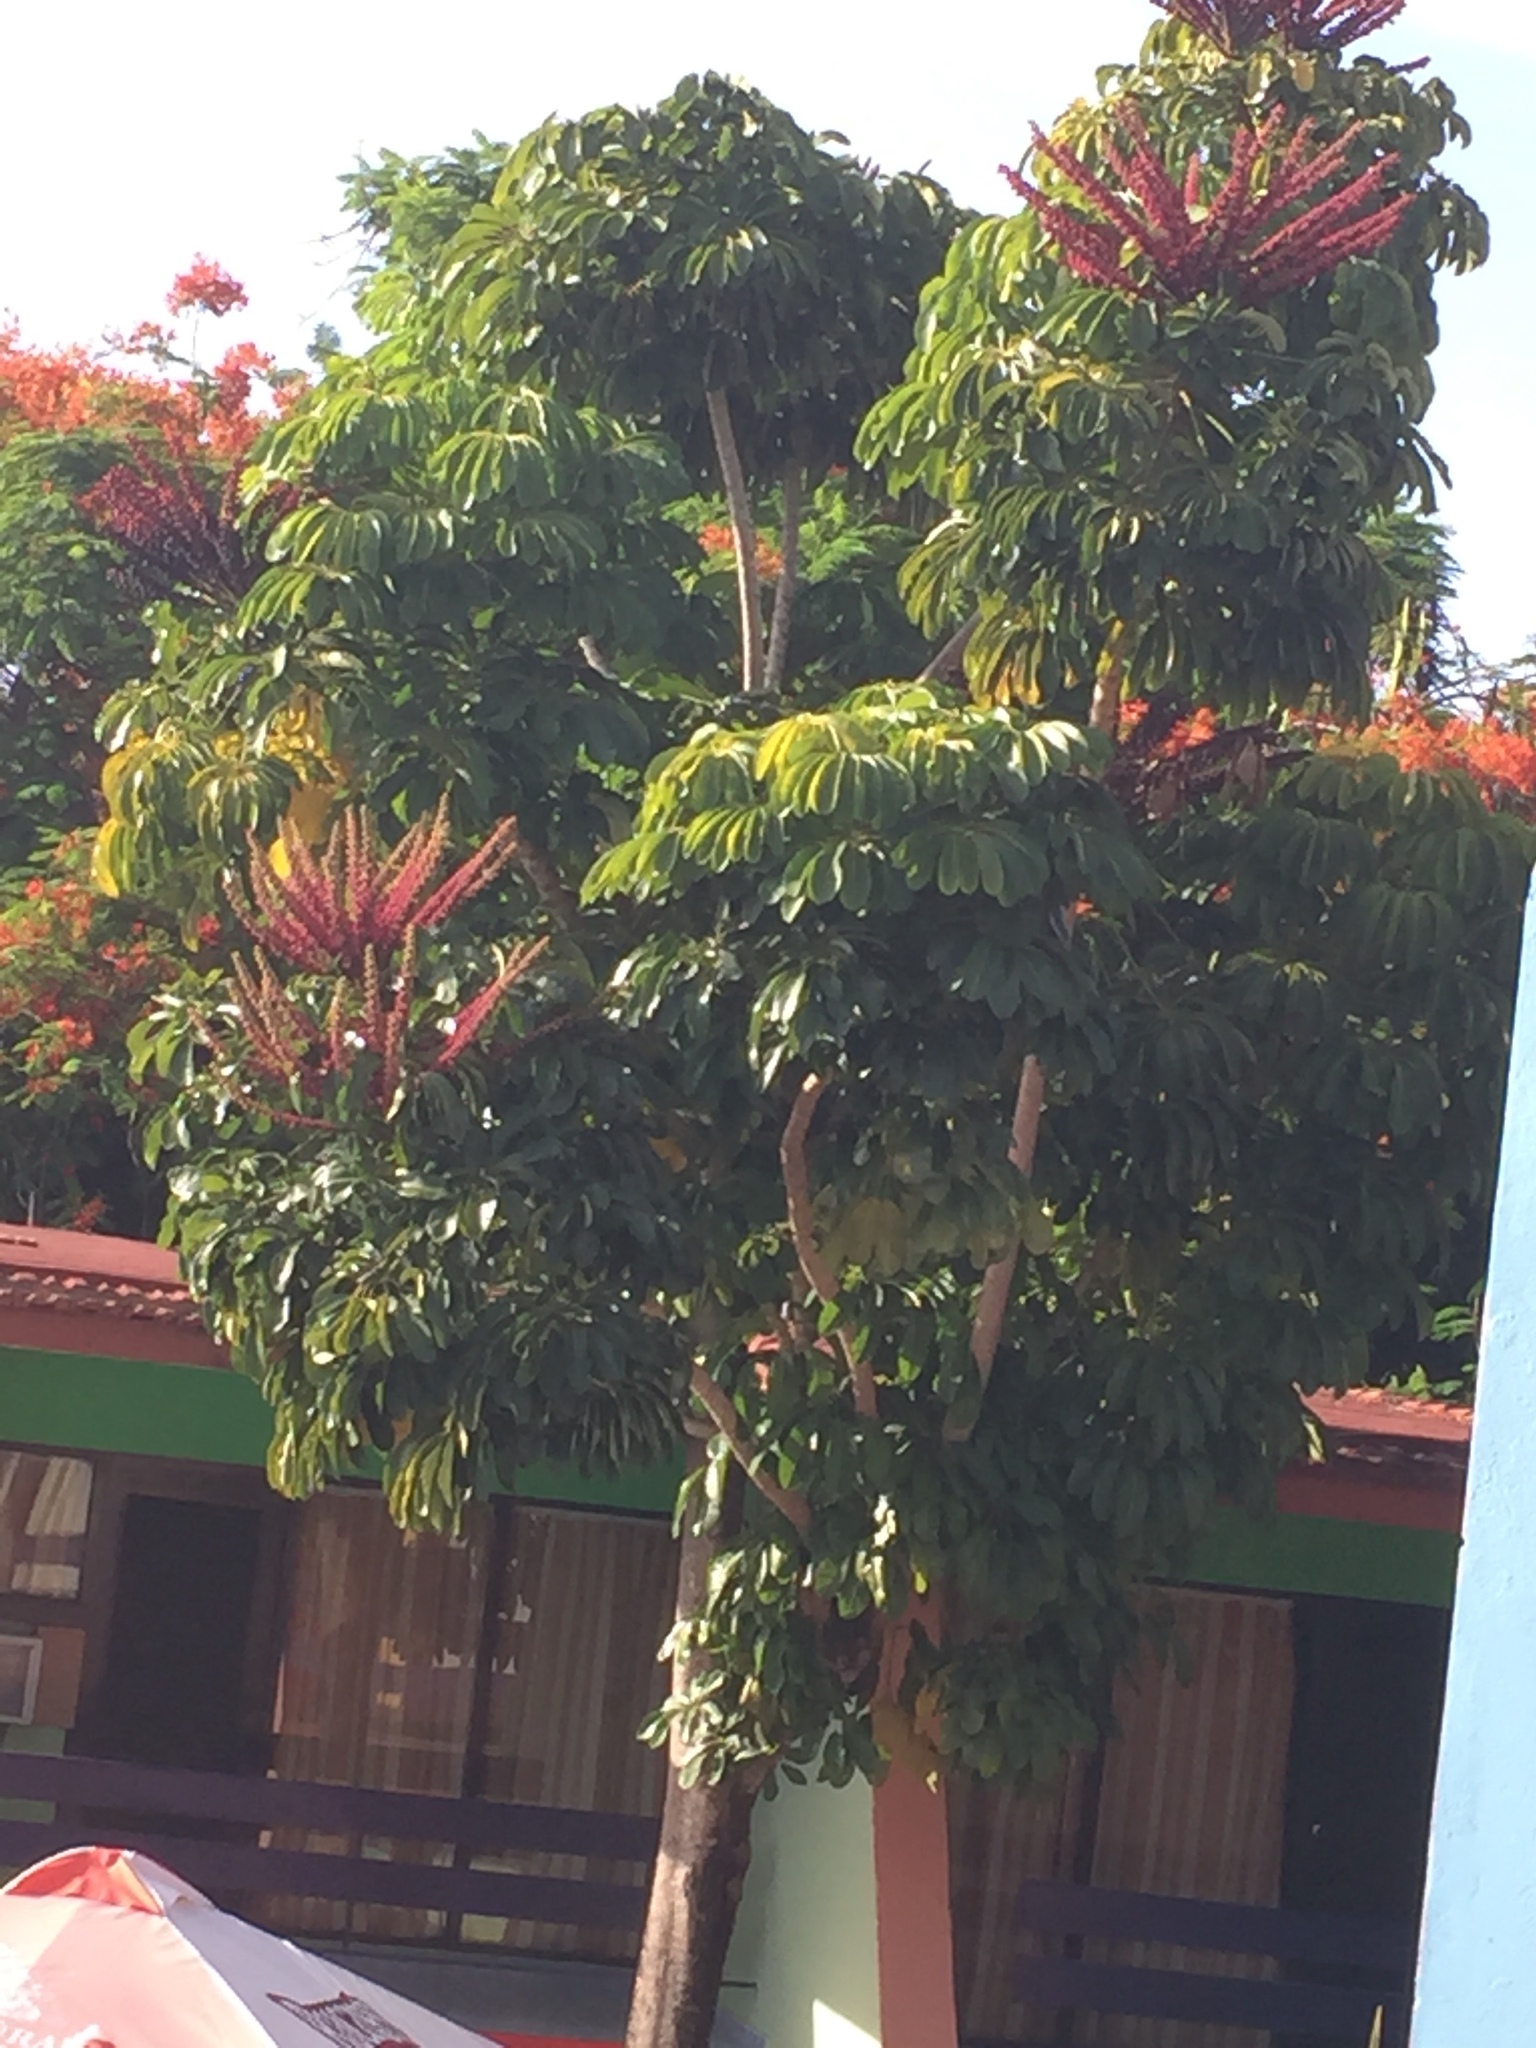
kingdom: Plantae
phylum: Tracheophyta
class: Magnoliopsida
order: Apiales
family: Araliaceae
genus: Heptapleurum
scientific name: Heptapleurum actinophyllum
